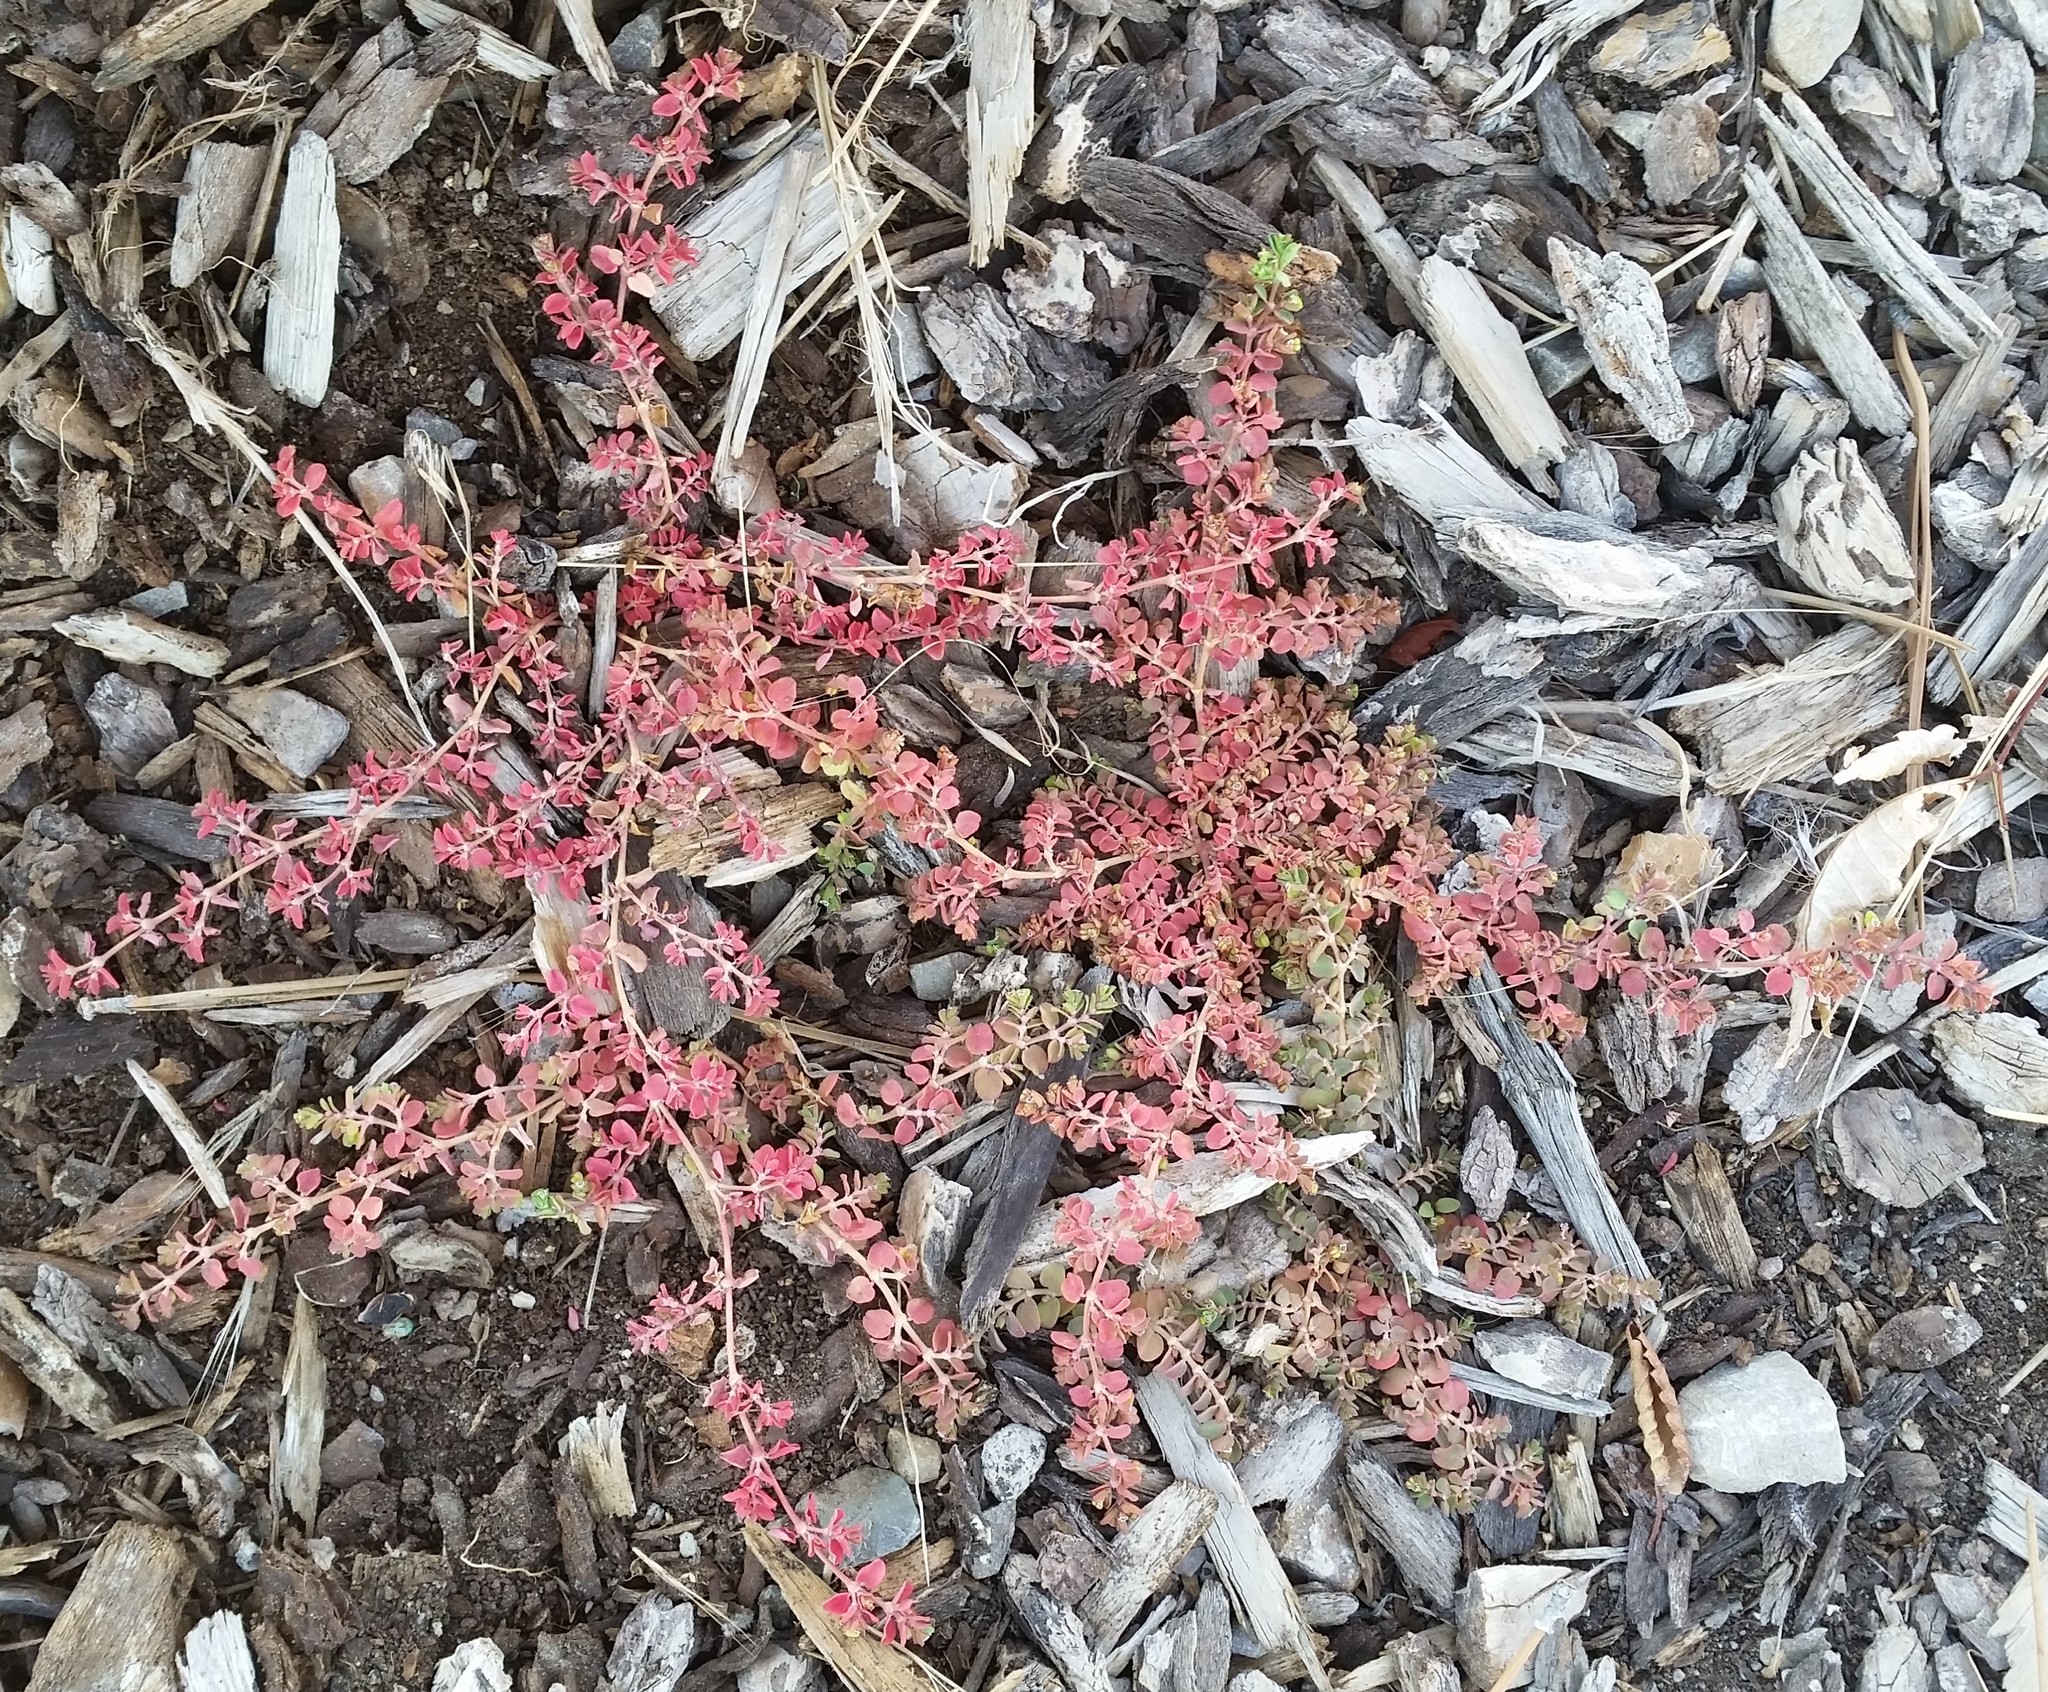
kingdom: Plantae
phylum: Tracheophyta
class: Magnoliopsida
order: Malpighiales
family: Euphorbiaceae
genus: Euphorbia
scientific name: Euphorbia serpens
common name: Matted sandmat
